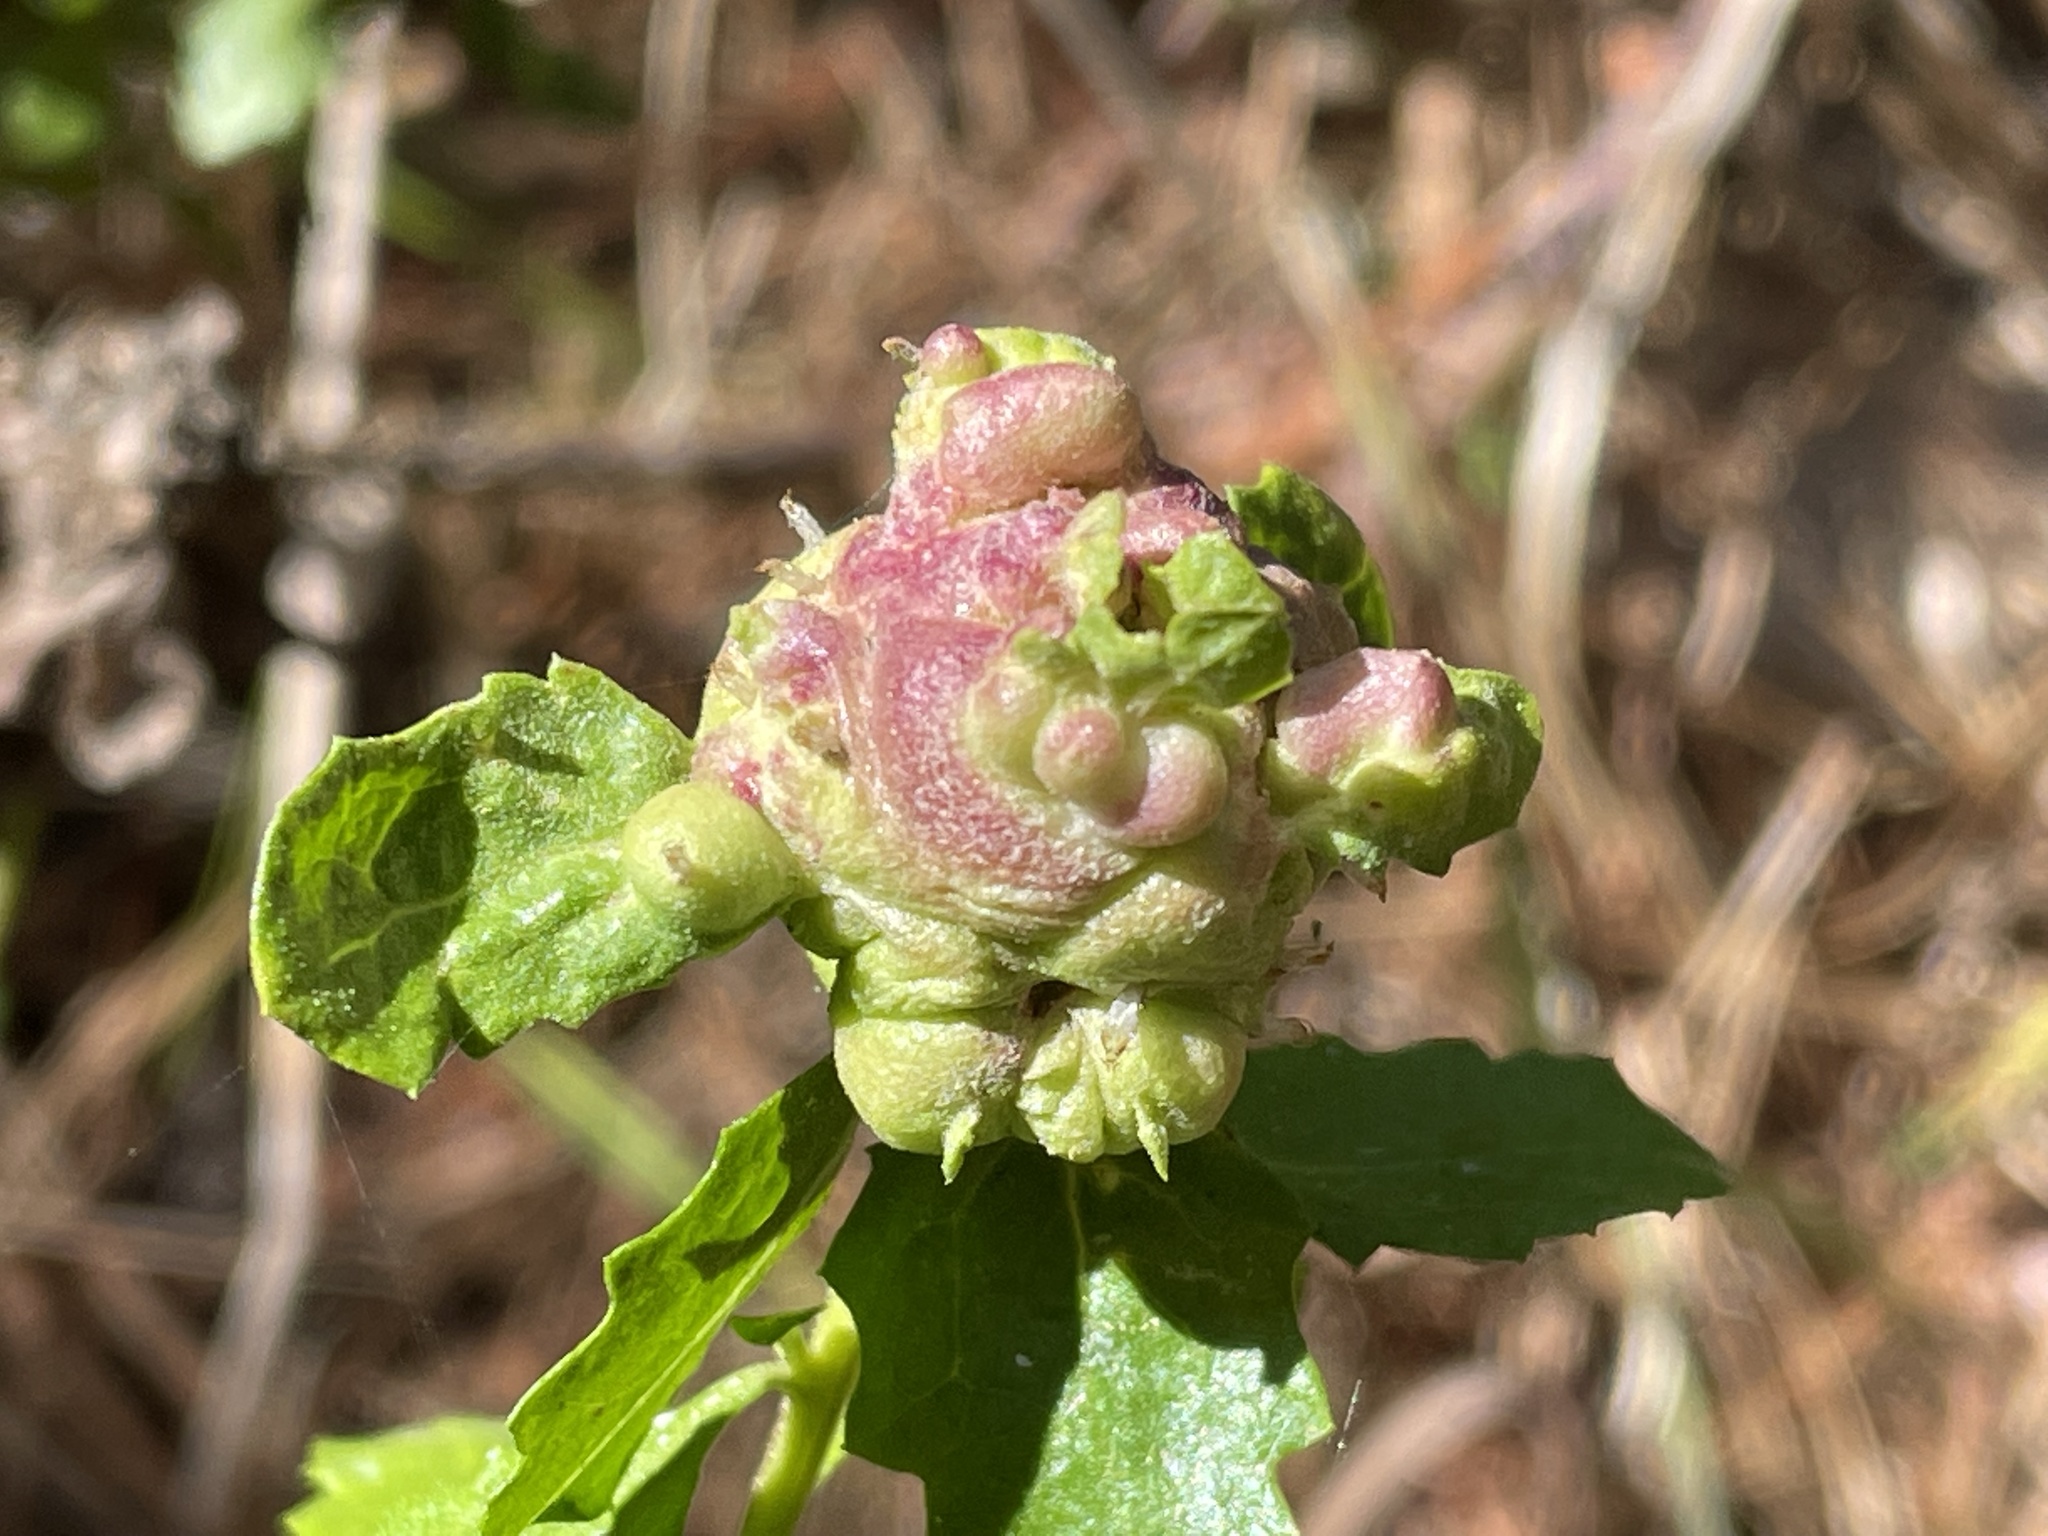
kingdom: Animalia
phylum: Arthropoda
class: Insecta
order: Diptera
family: Cecidomyiidae
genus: Rhopalomyia
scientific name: Rhopalomyia californica
